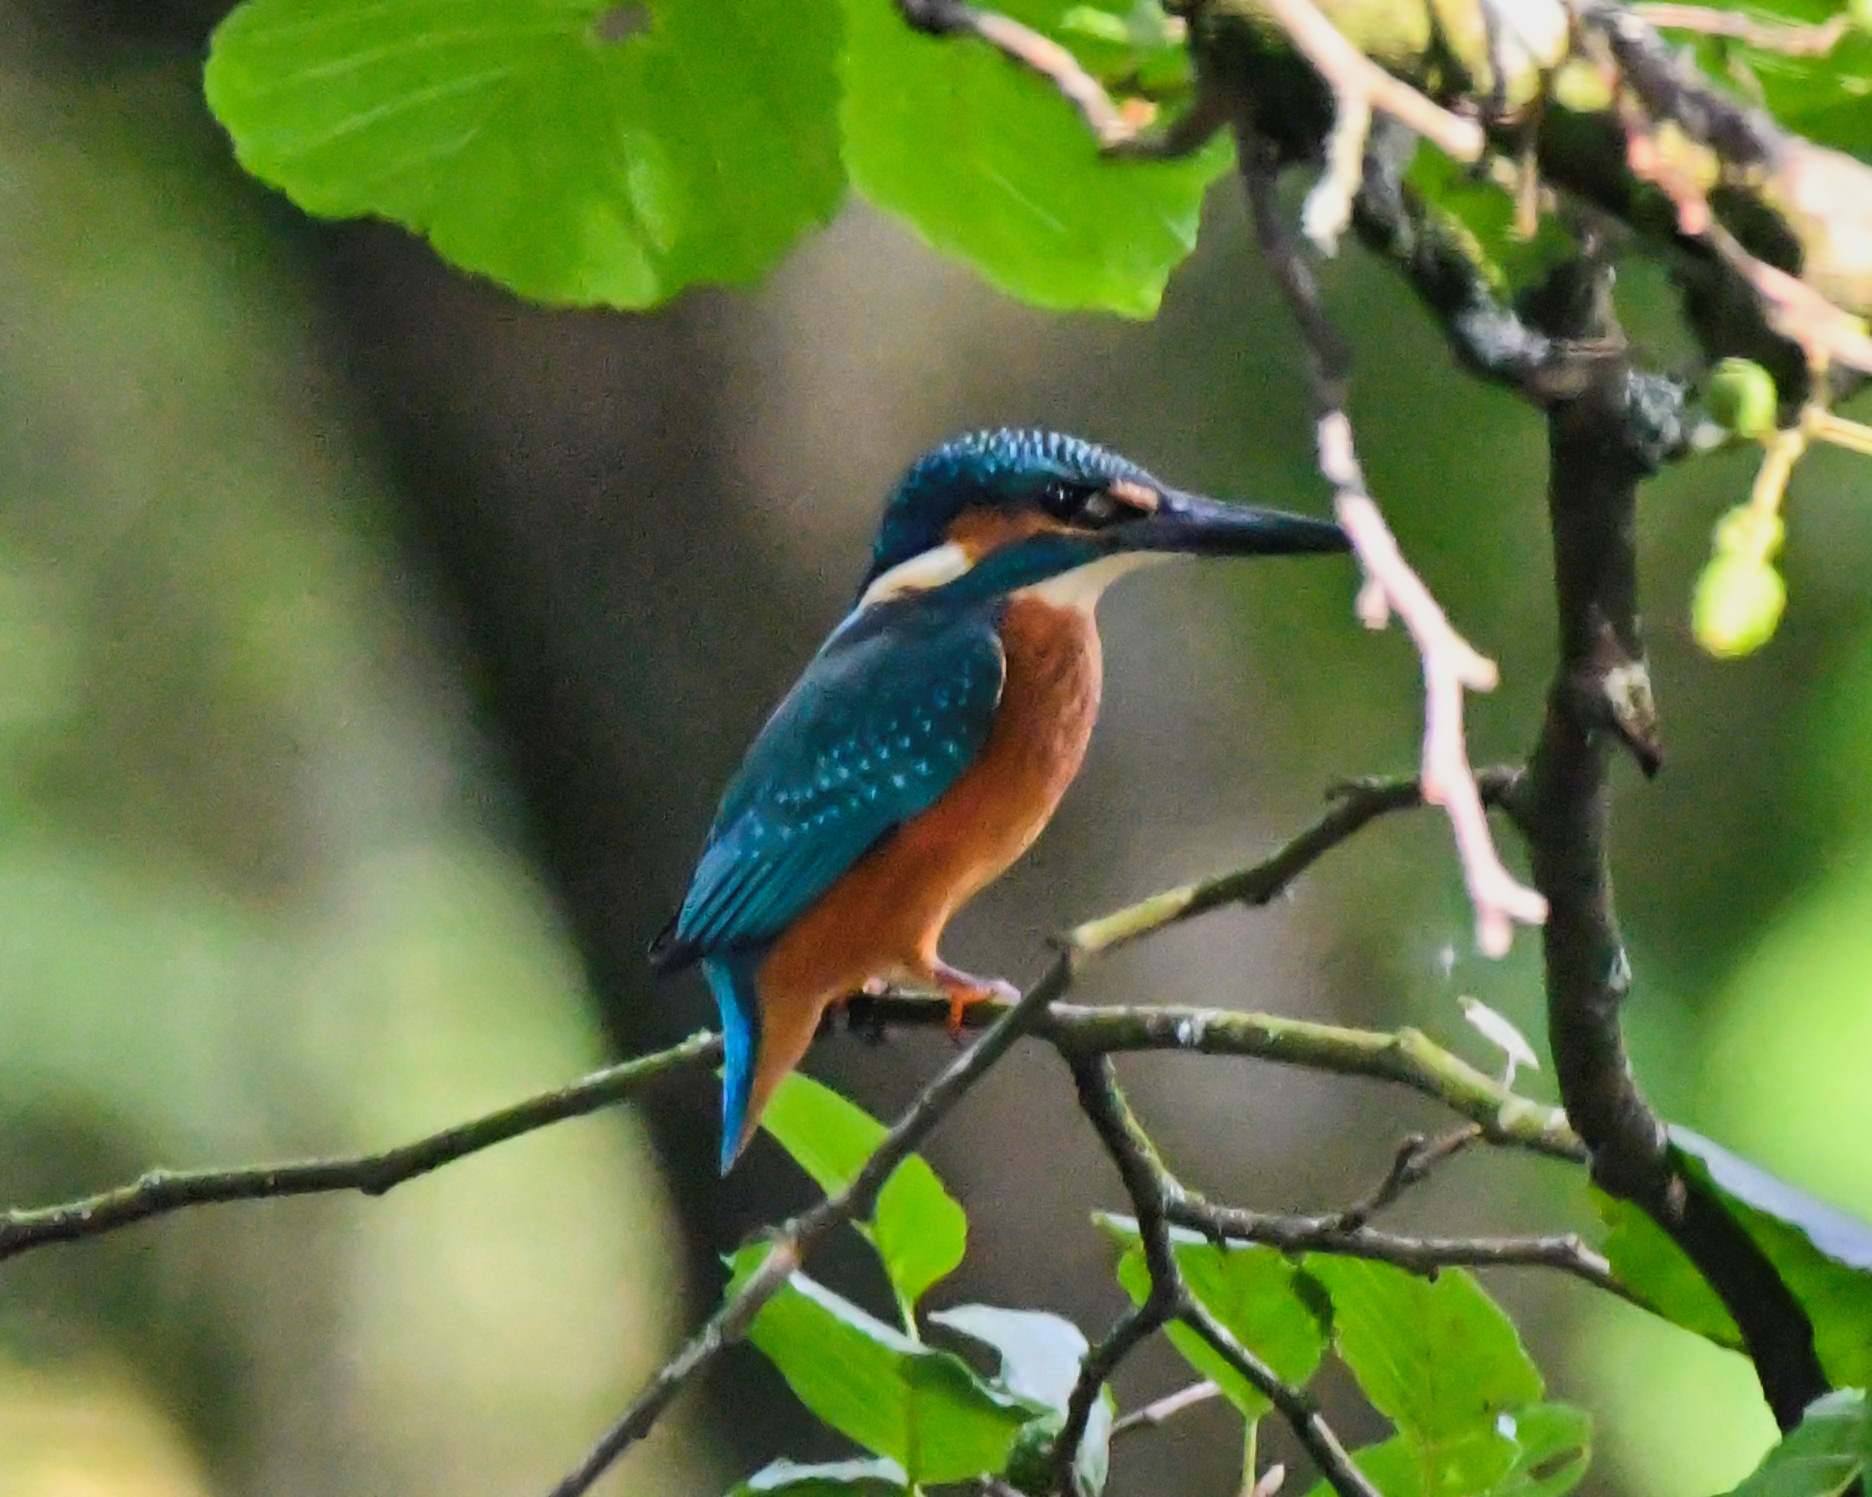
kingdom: Animalia
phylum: Chordata
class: Aves
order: Coraciiformes
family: Alcedinidae
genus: Alcedo
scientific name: Alcedo atthis
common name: Common kingfisher
